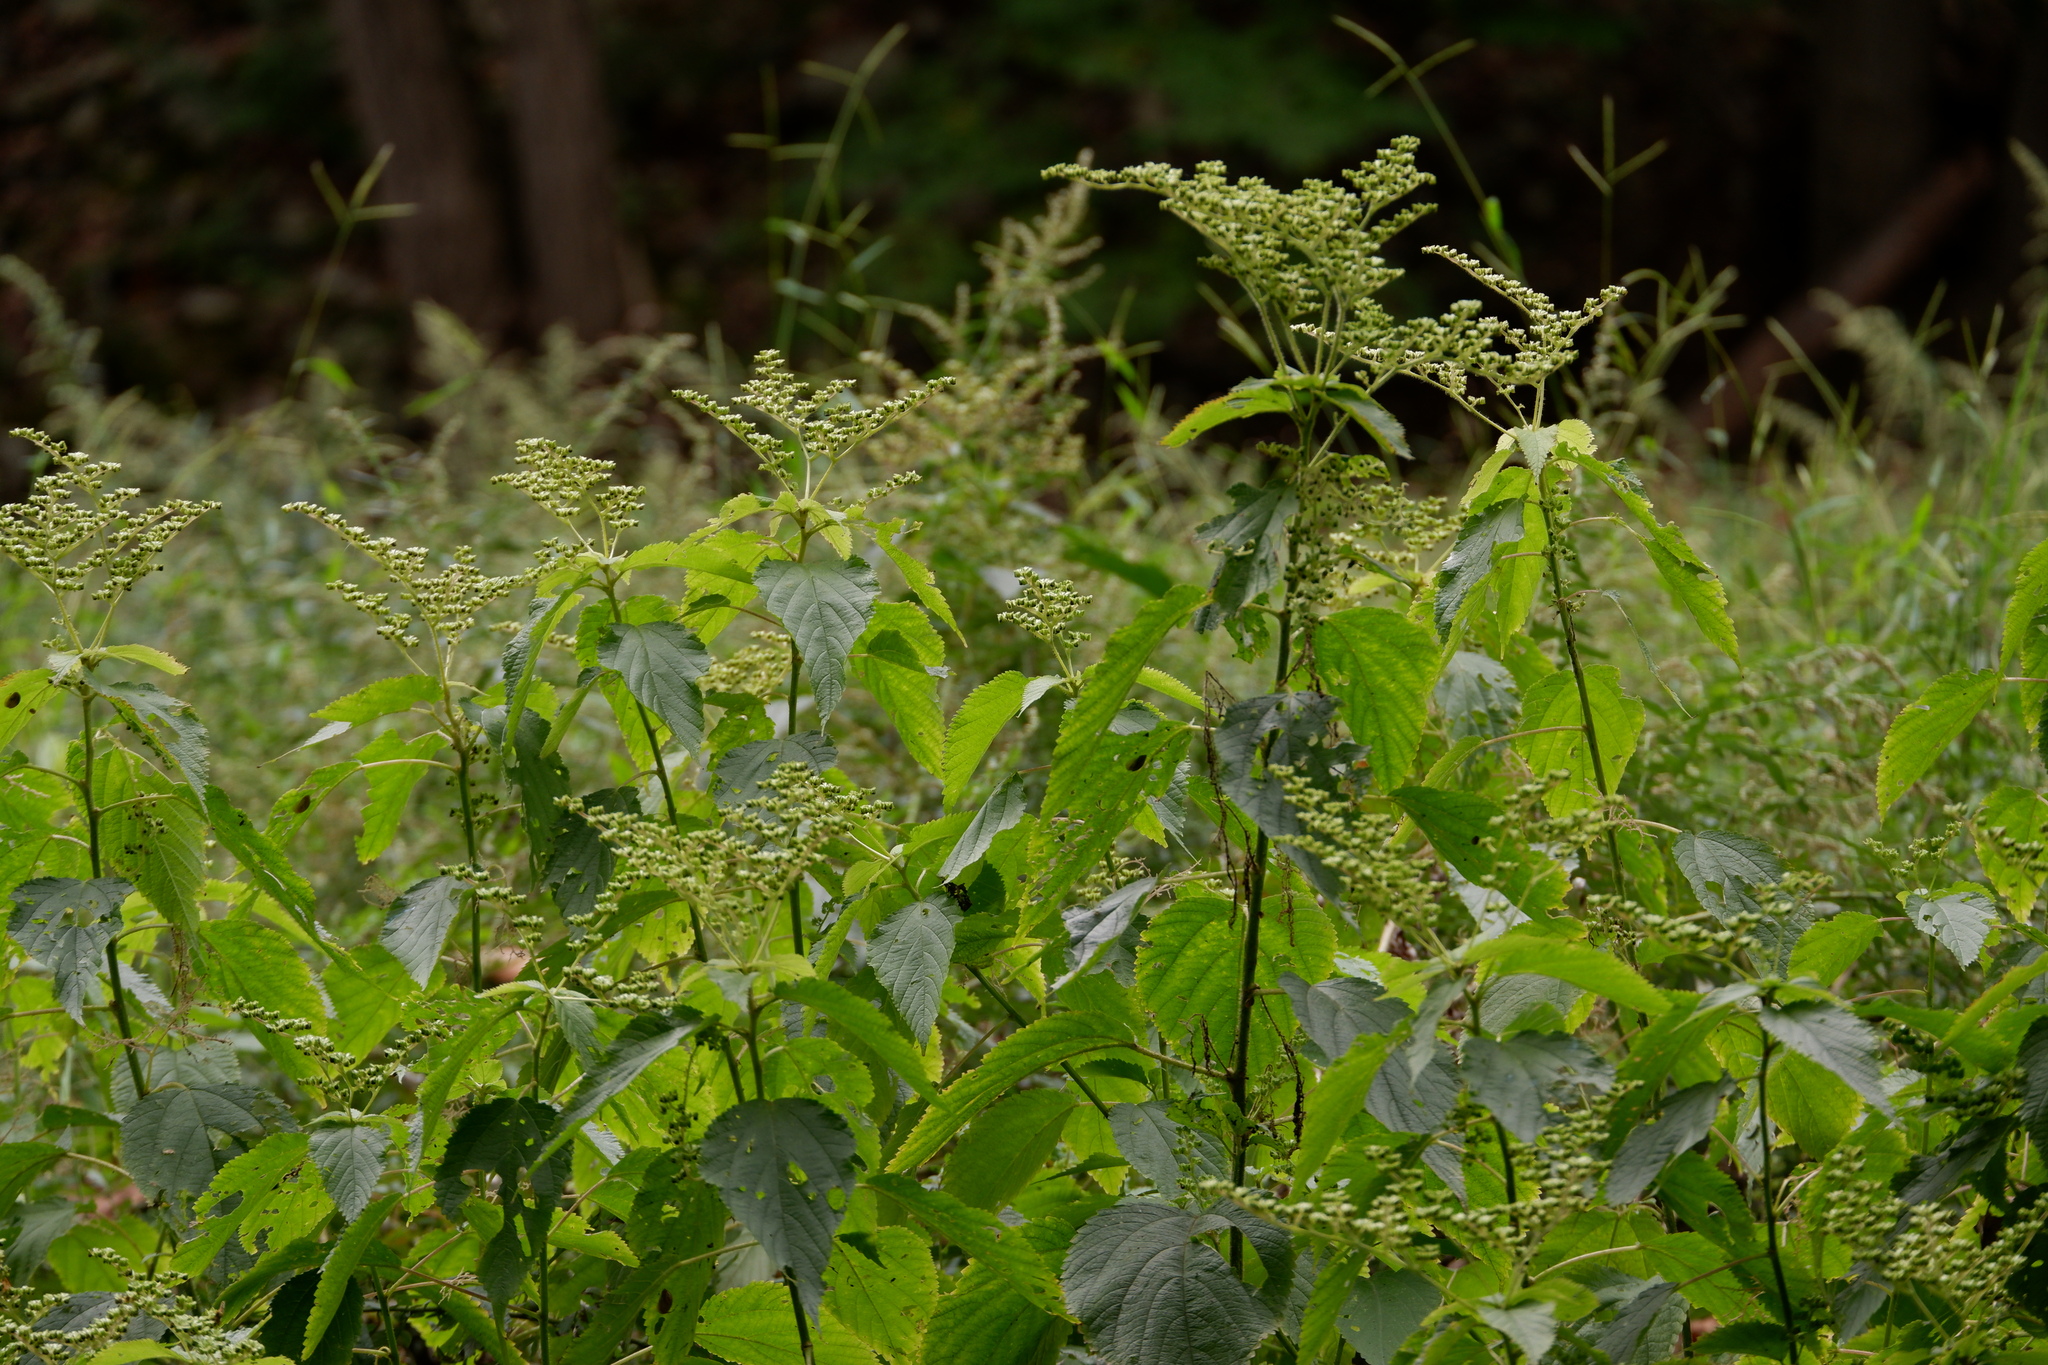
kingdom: Plantae
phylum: Tracheophyta
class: Magnoliopsida
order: Rosales
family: Urticaceae
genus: Laportea
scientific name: Laportea canadensis
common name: Canada nettle
